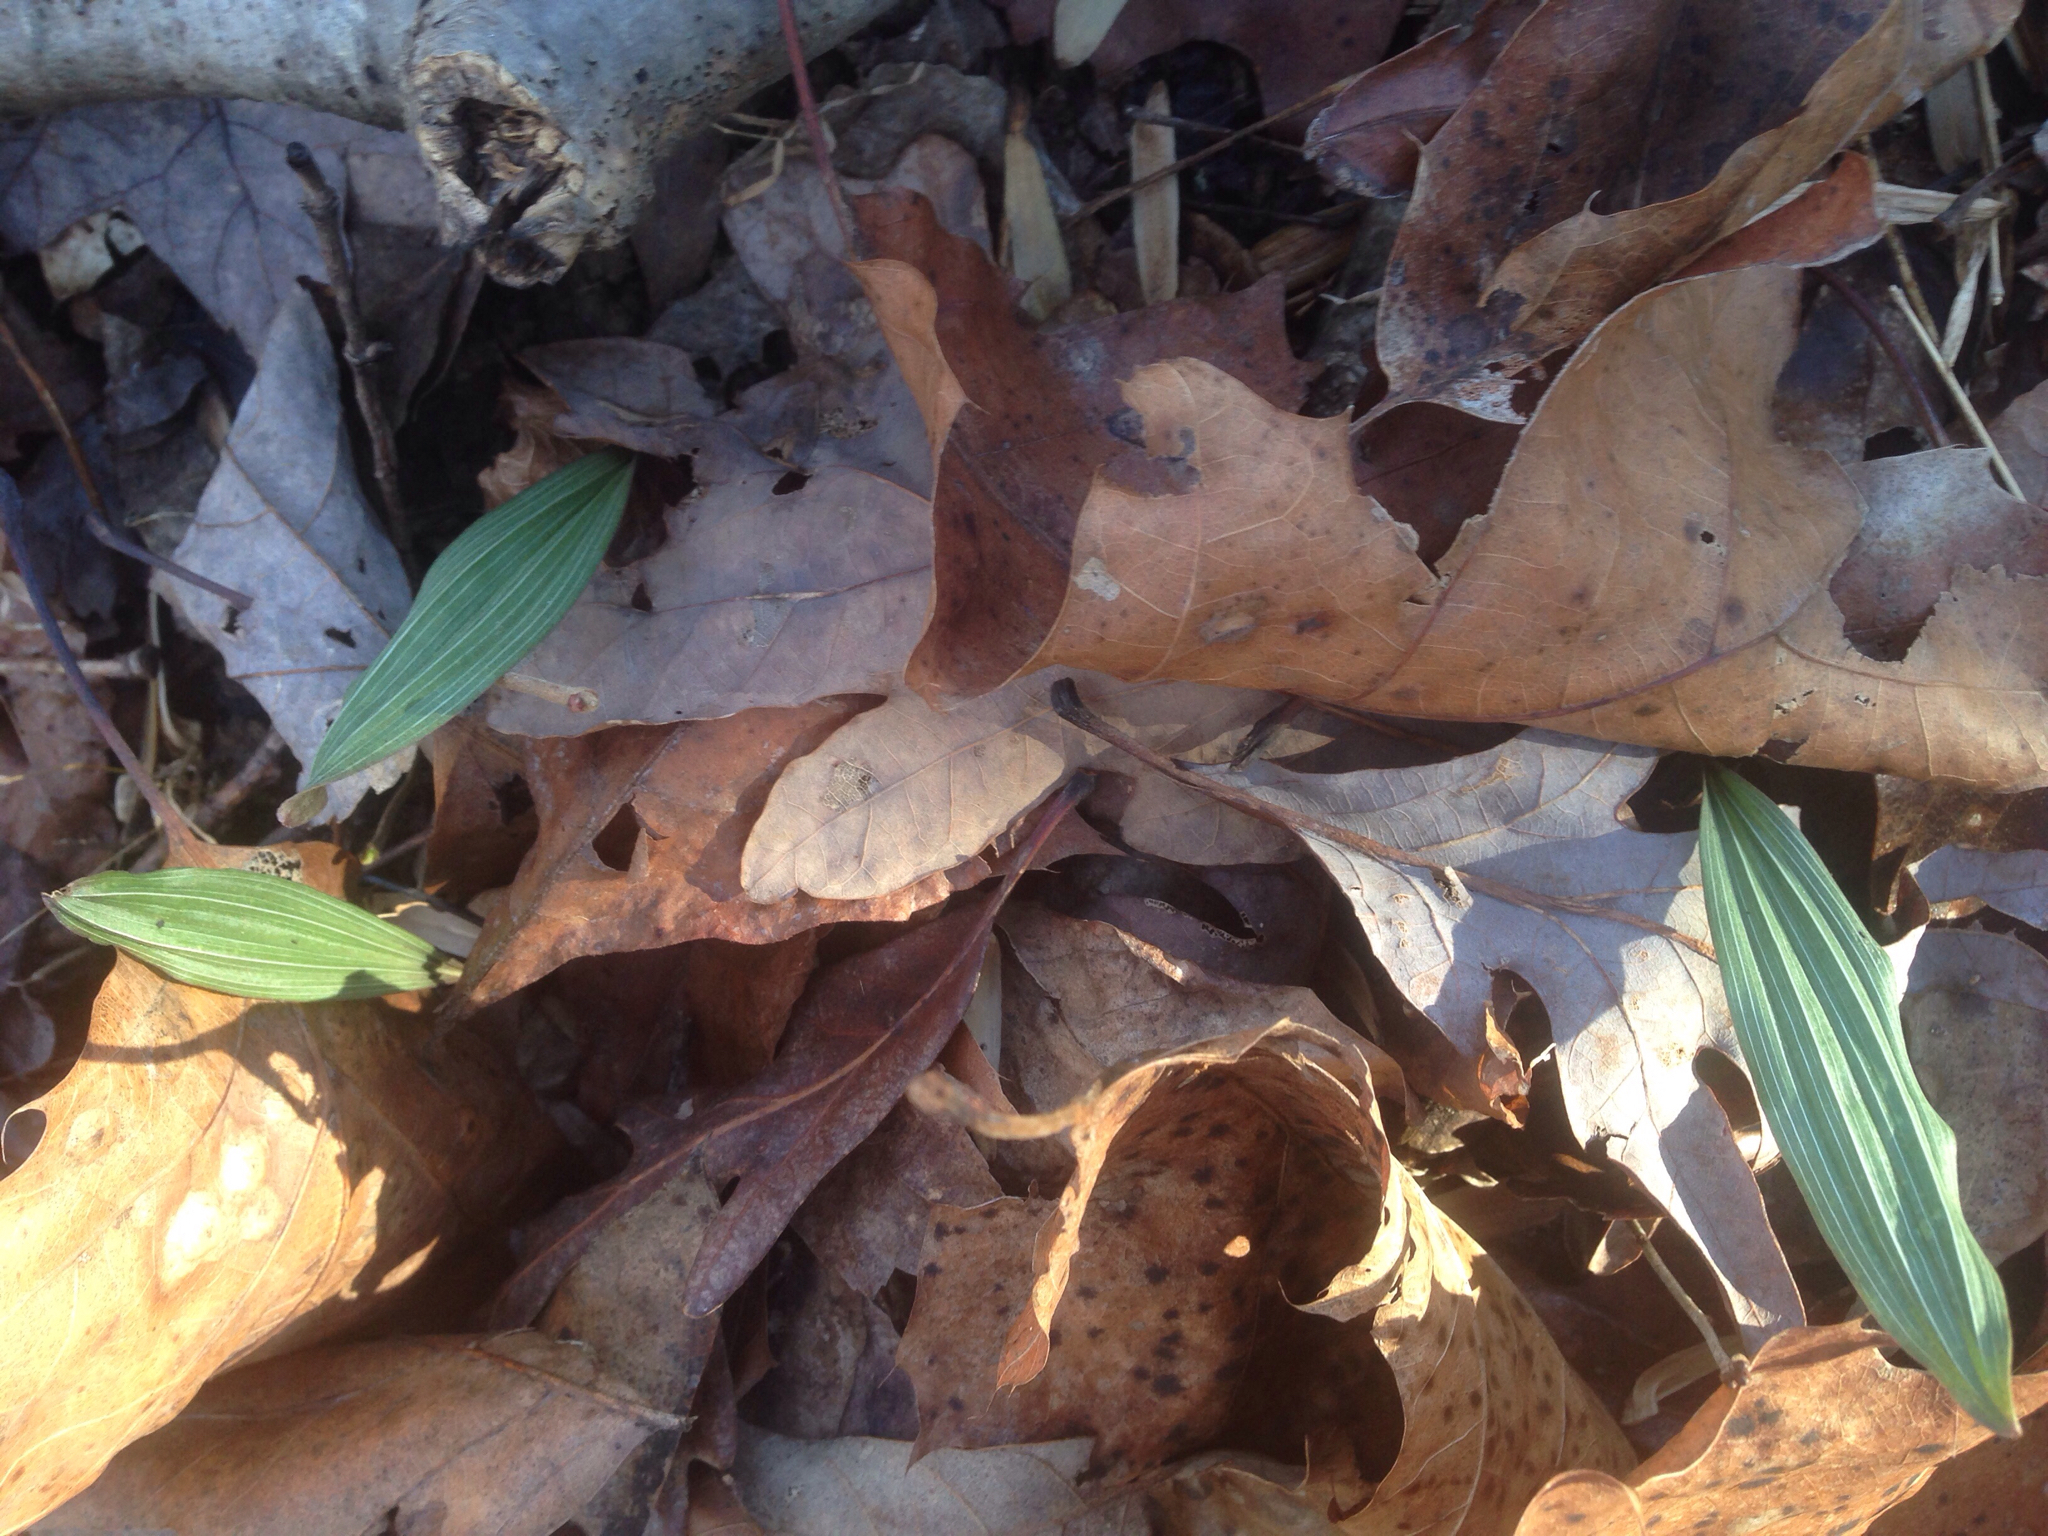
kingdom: Plantae
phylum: Tracheophyta
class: Liliopsida
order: Asparagales
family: Orchidaceae
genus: Aplectrum
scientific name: Aplectrum hyemale
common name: Adam-and-eve
